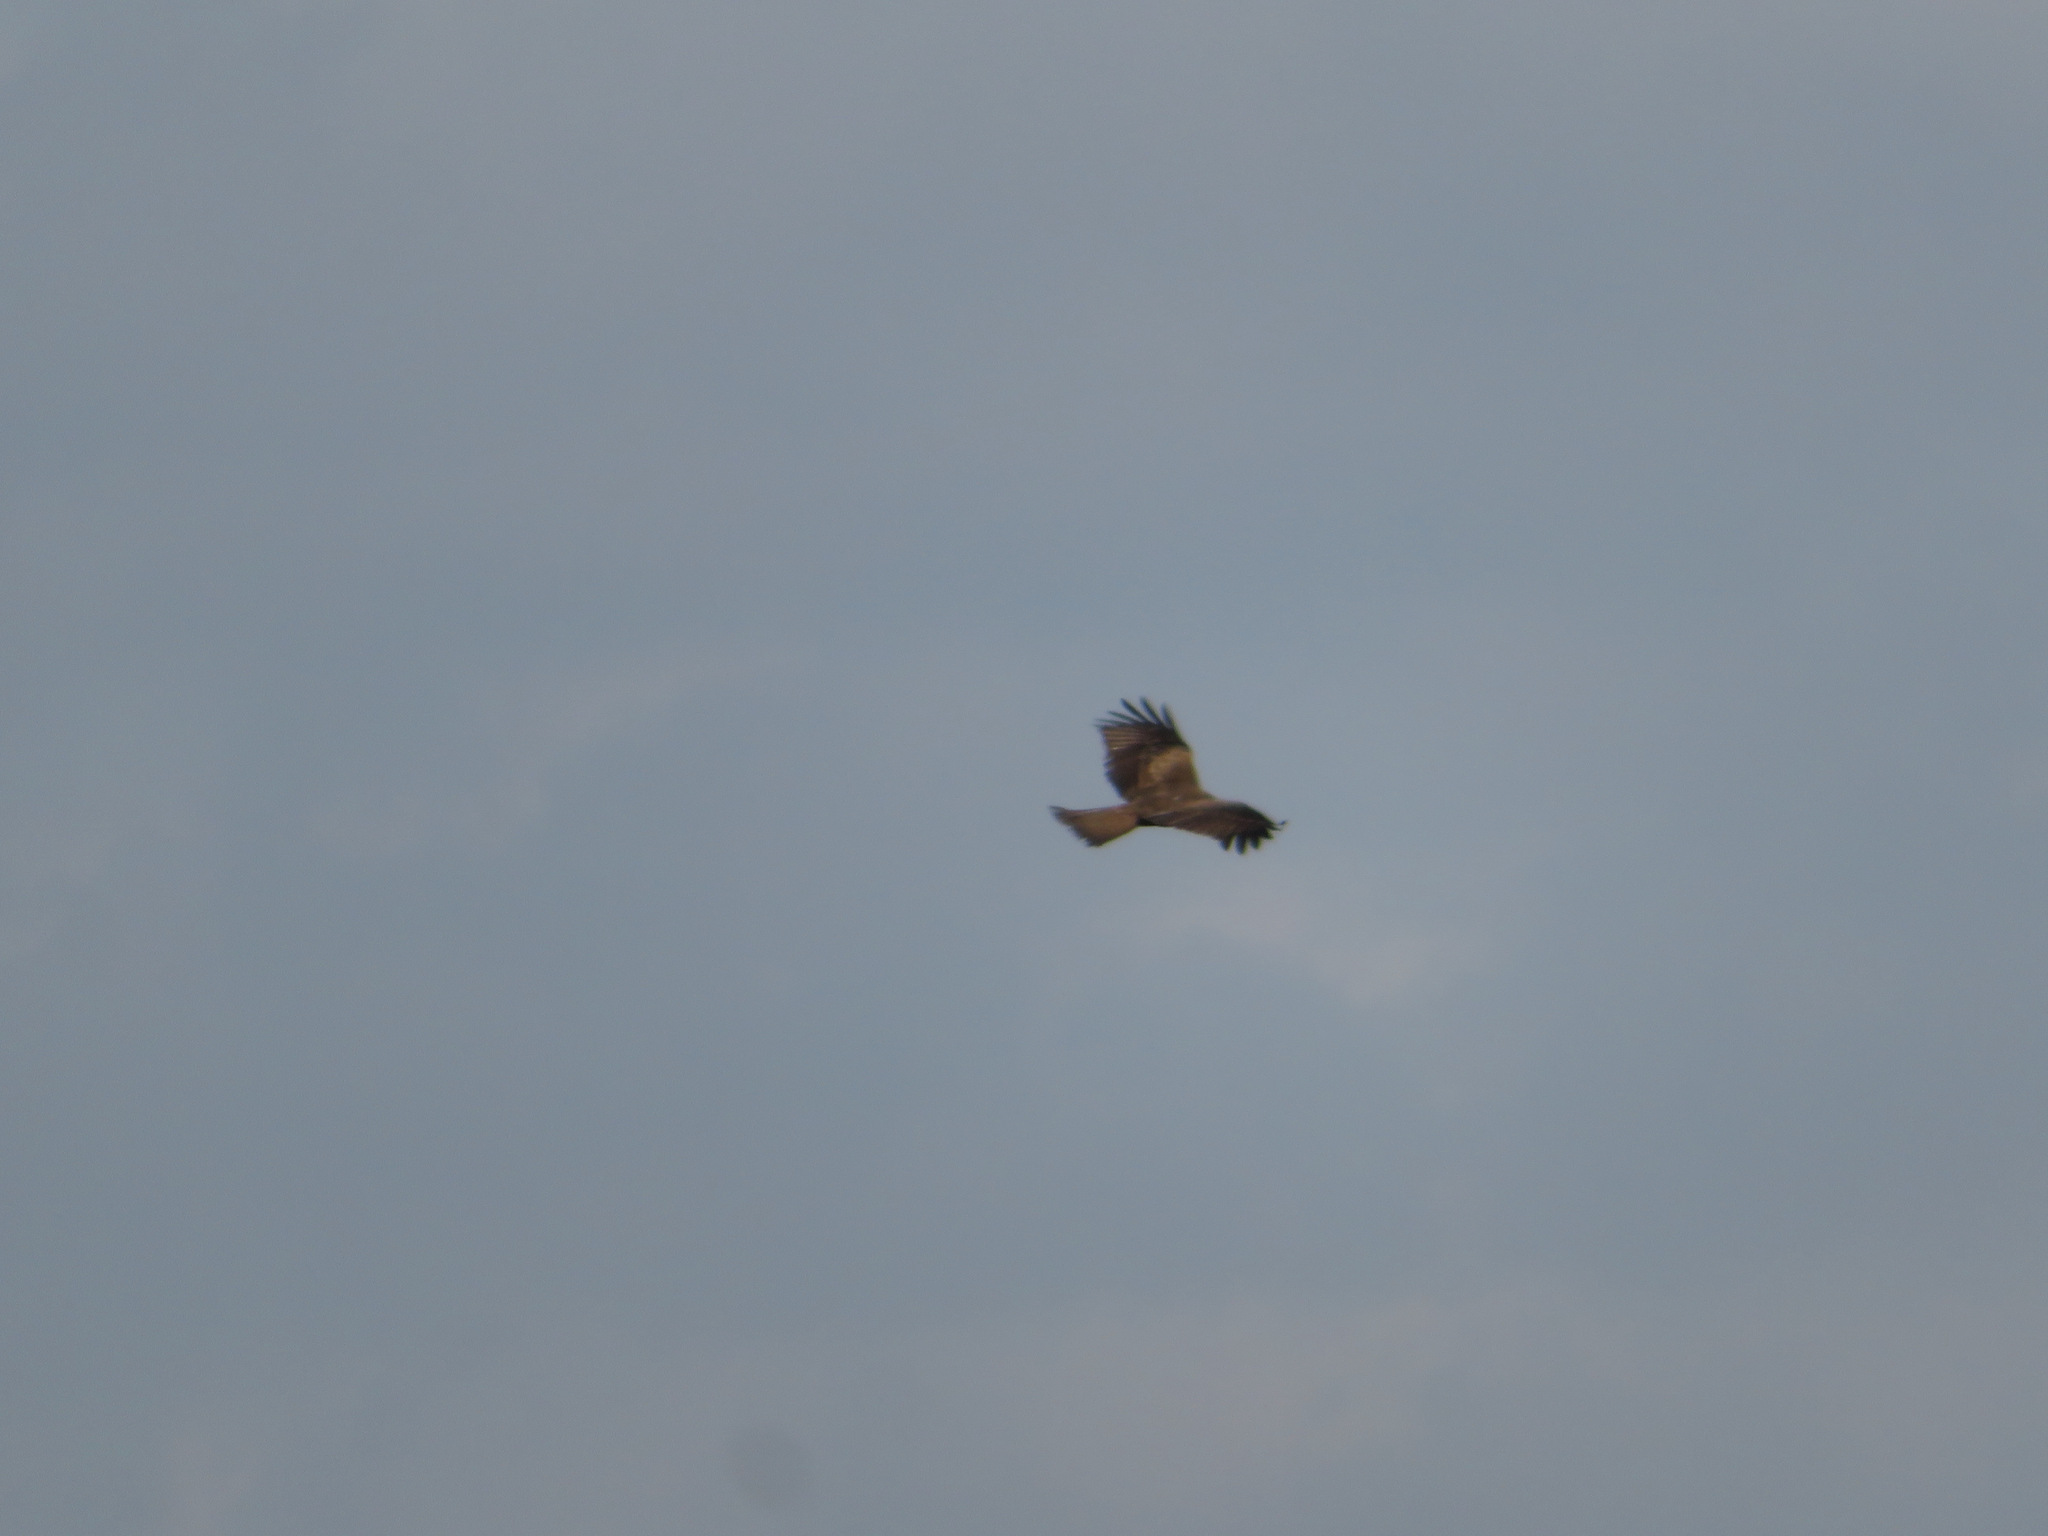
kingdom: Animalia
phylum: Chordata
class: Aves
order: Accipitriformes
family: Accipitridae
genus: Milvus
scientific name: Milvus migrans
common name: Black kite
